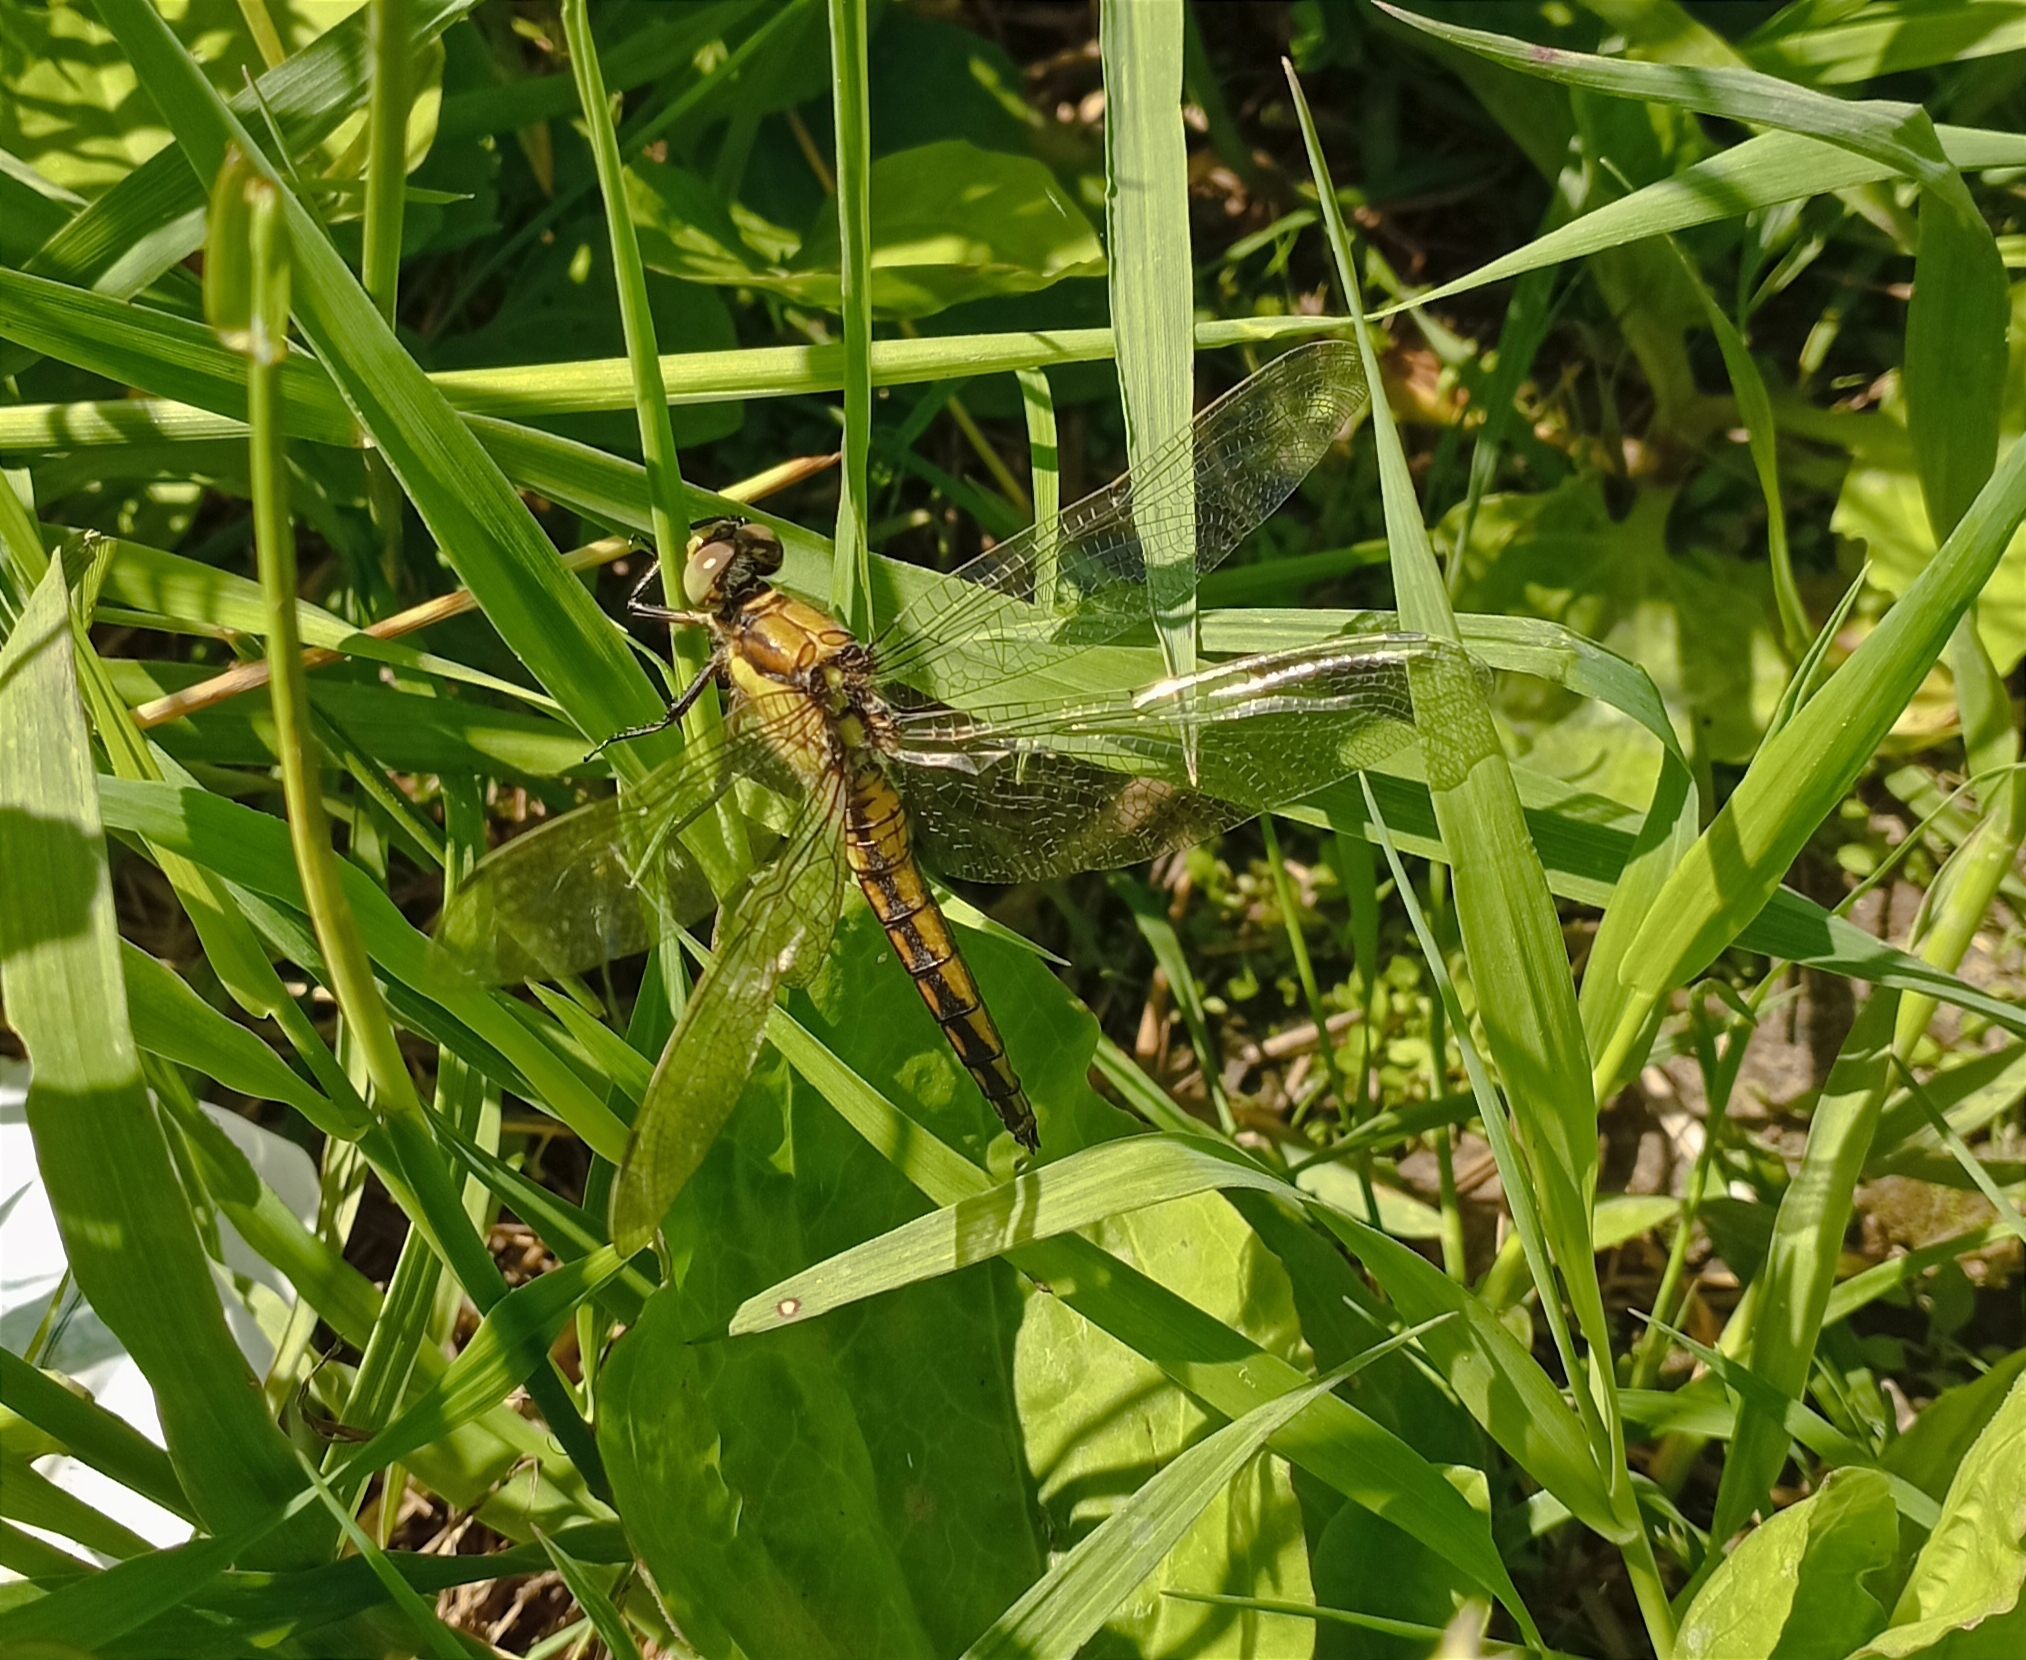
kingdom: Animalia
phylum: Arthropoda
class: Insecta
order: Odonata
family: Libellulidae
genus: Orthetrum
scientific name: Orthetrum cancellatum
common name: Black-tailed skimmer
